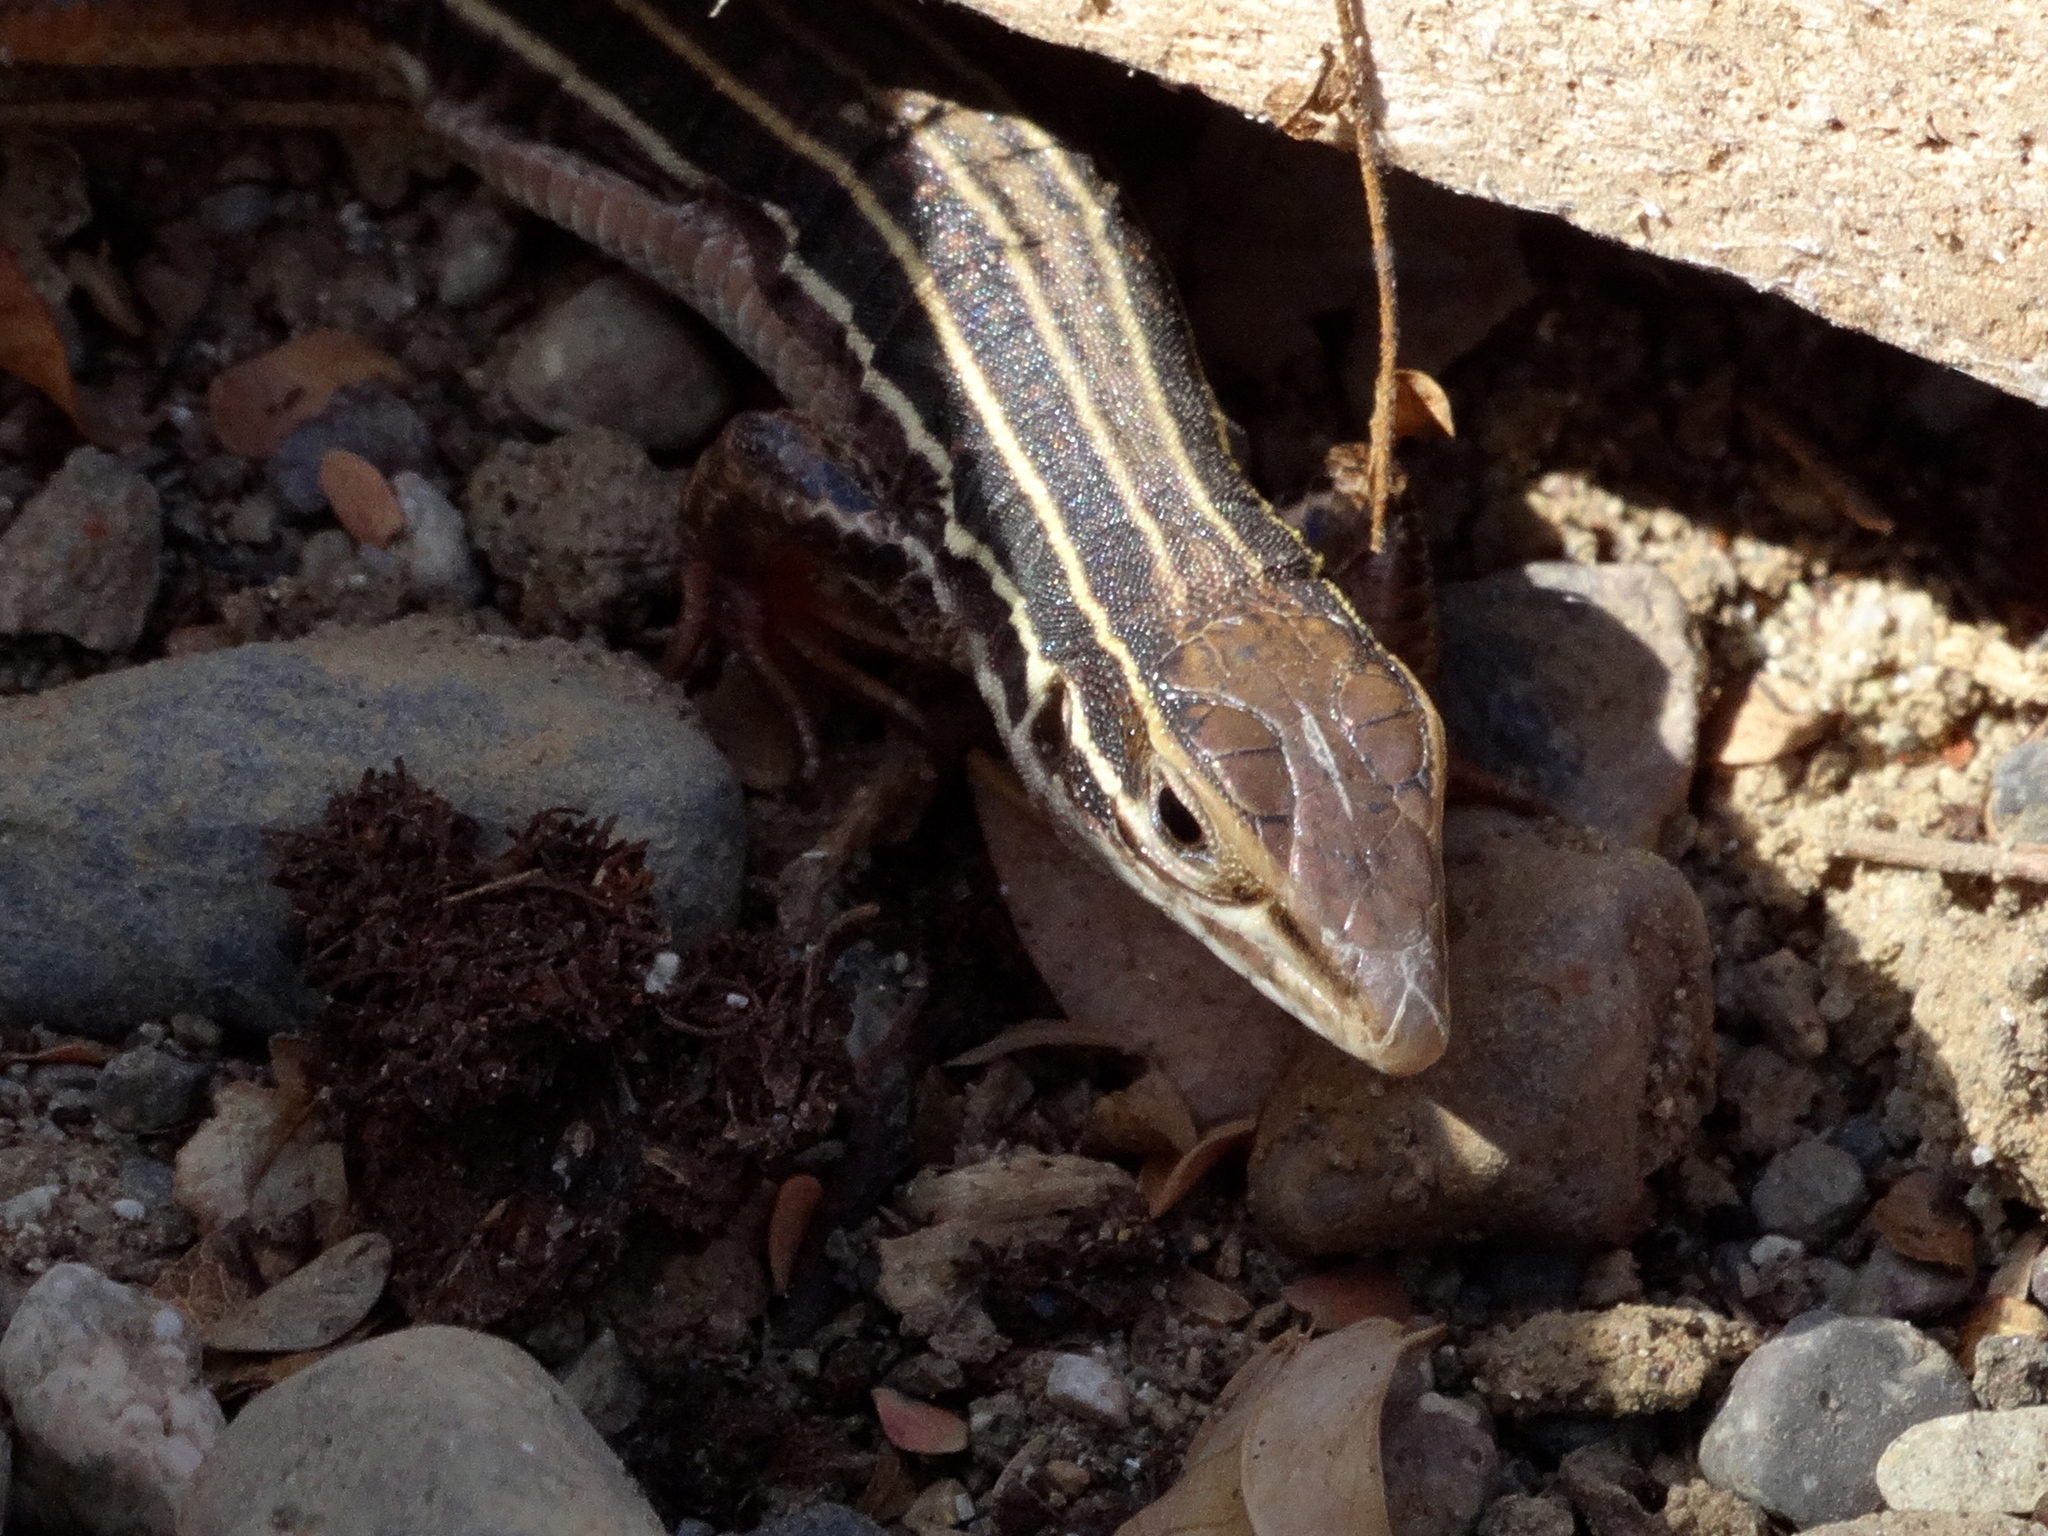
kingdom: Animalia
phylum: Chordata
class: Squamata
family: Teiidae
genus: Aspidoscelis
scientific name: Aspidoscelis costatus
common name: Western mexico whiptail
